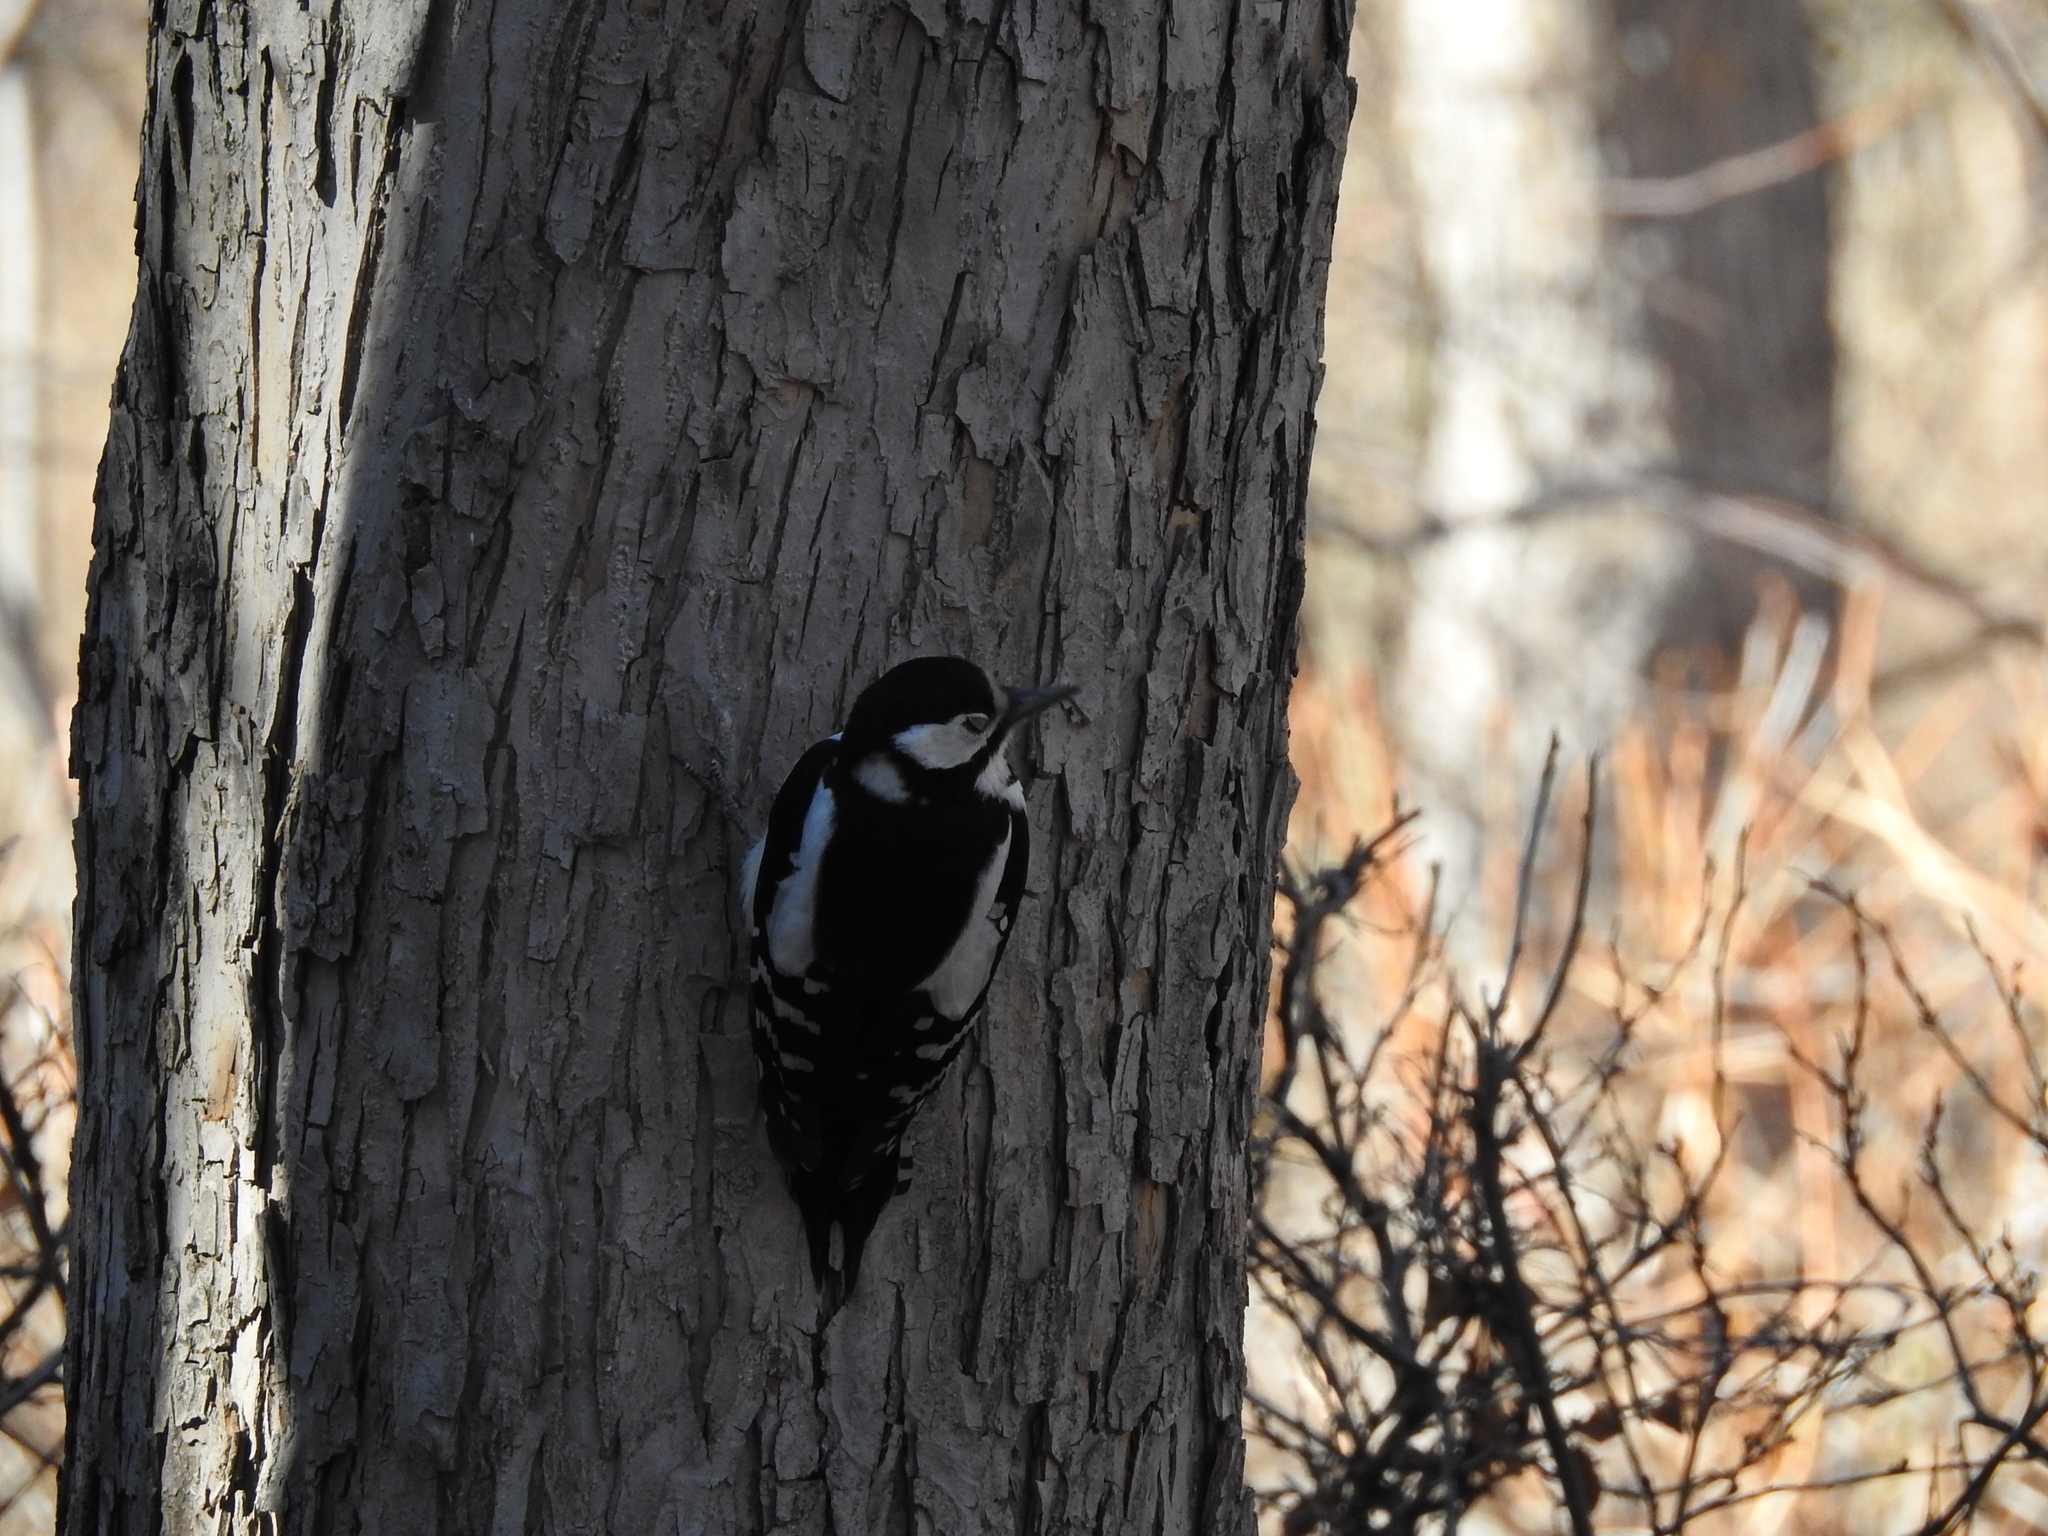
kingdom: Animalia
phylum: Chordata
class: Aves
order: Piciformes
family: Picidae
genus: Dendrocopos
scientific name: Dendrocopos major
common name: Great spotted woodpecker
